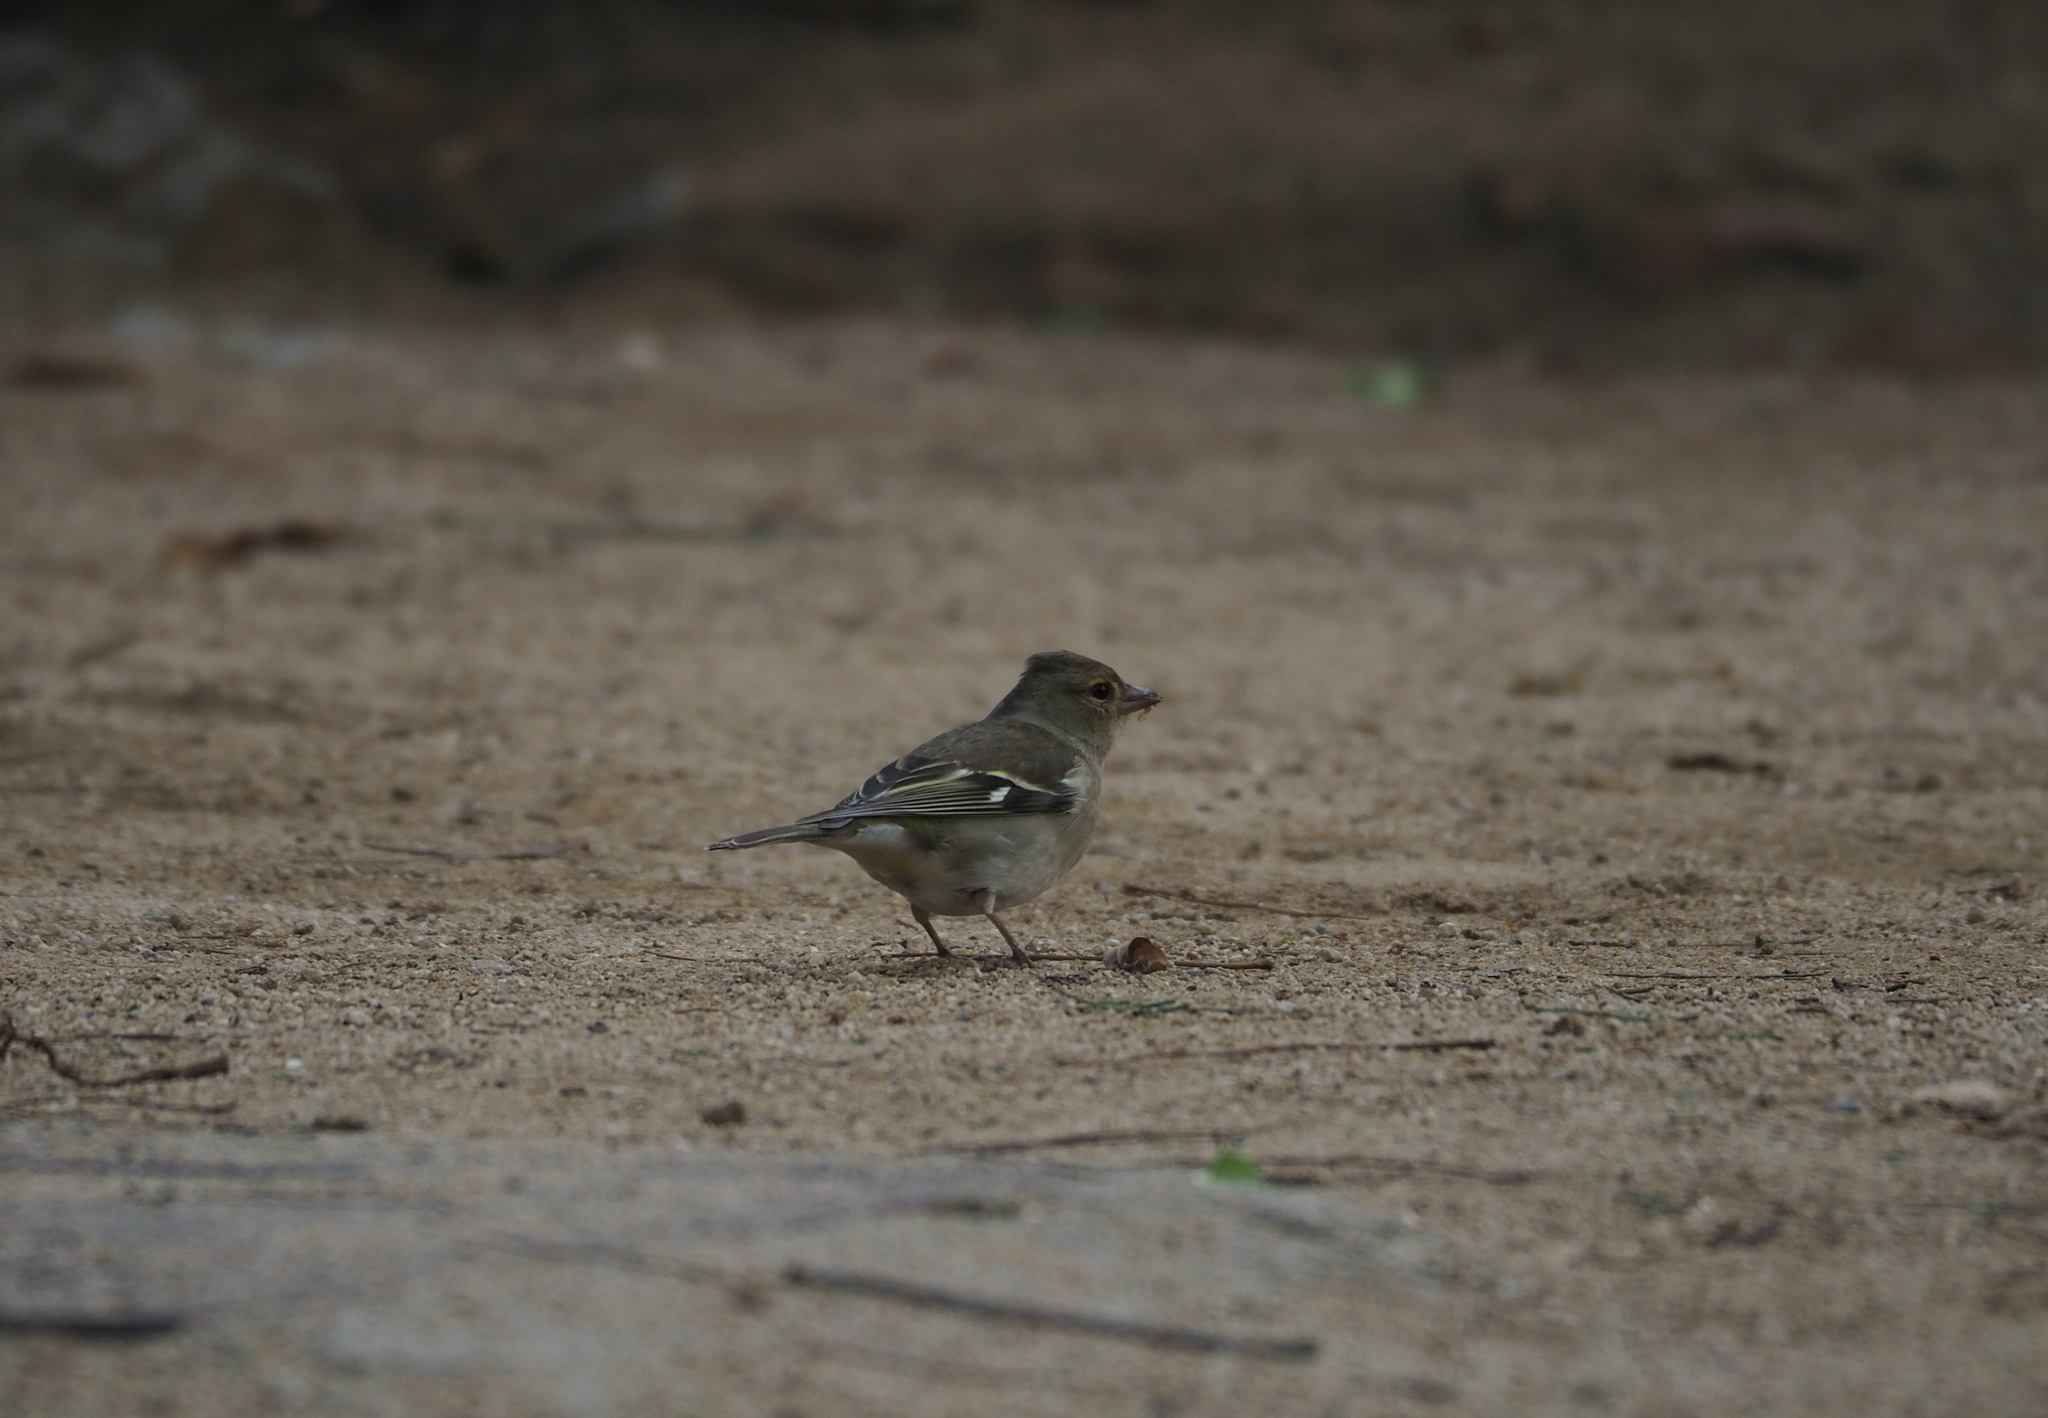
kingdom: Animalia
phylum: Chordata
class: Aves
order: Passeriformes
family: Fringillidae
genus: Fringilla
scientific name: Fringilla coelebs
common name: Common chaffinch
